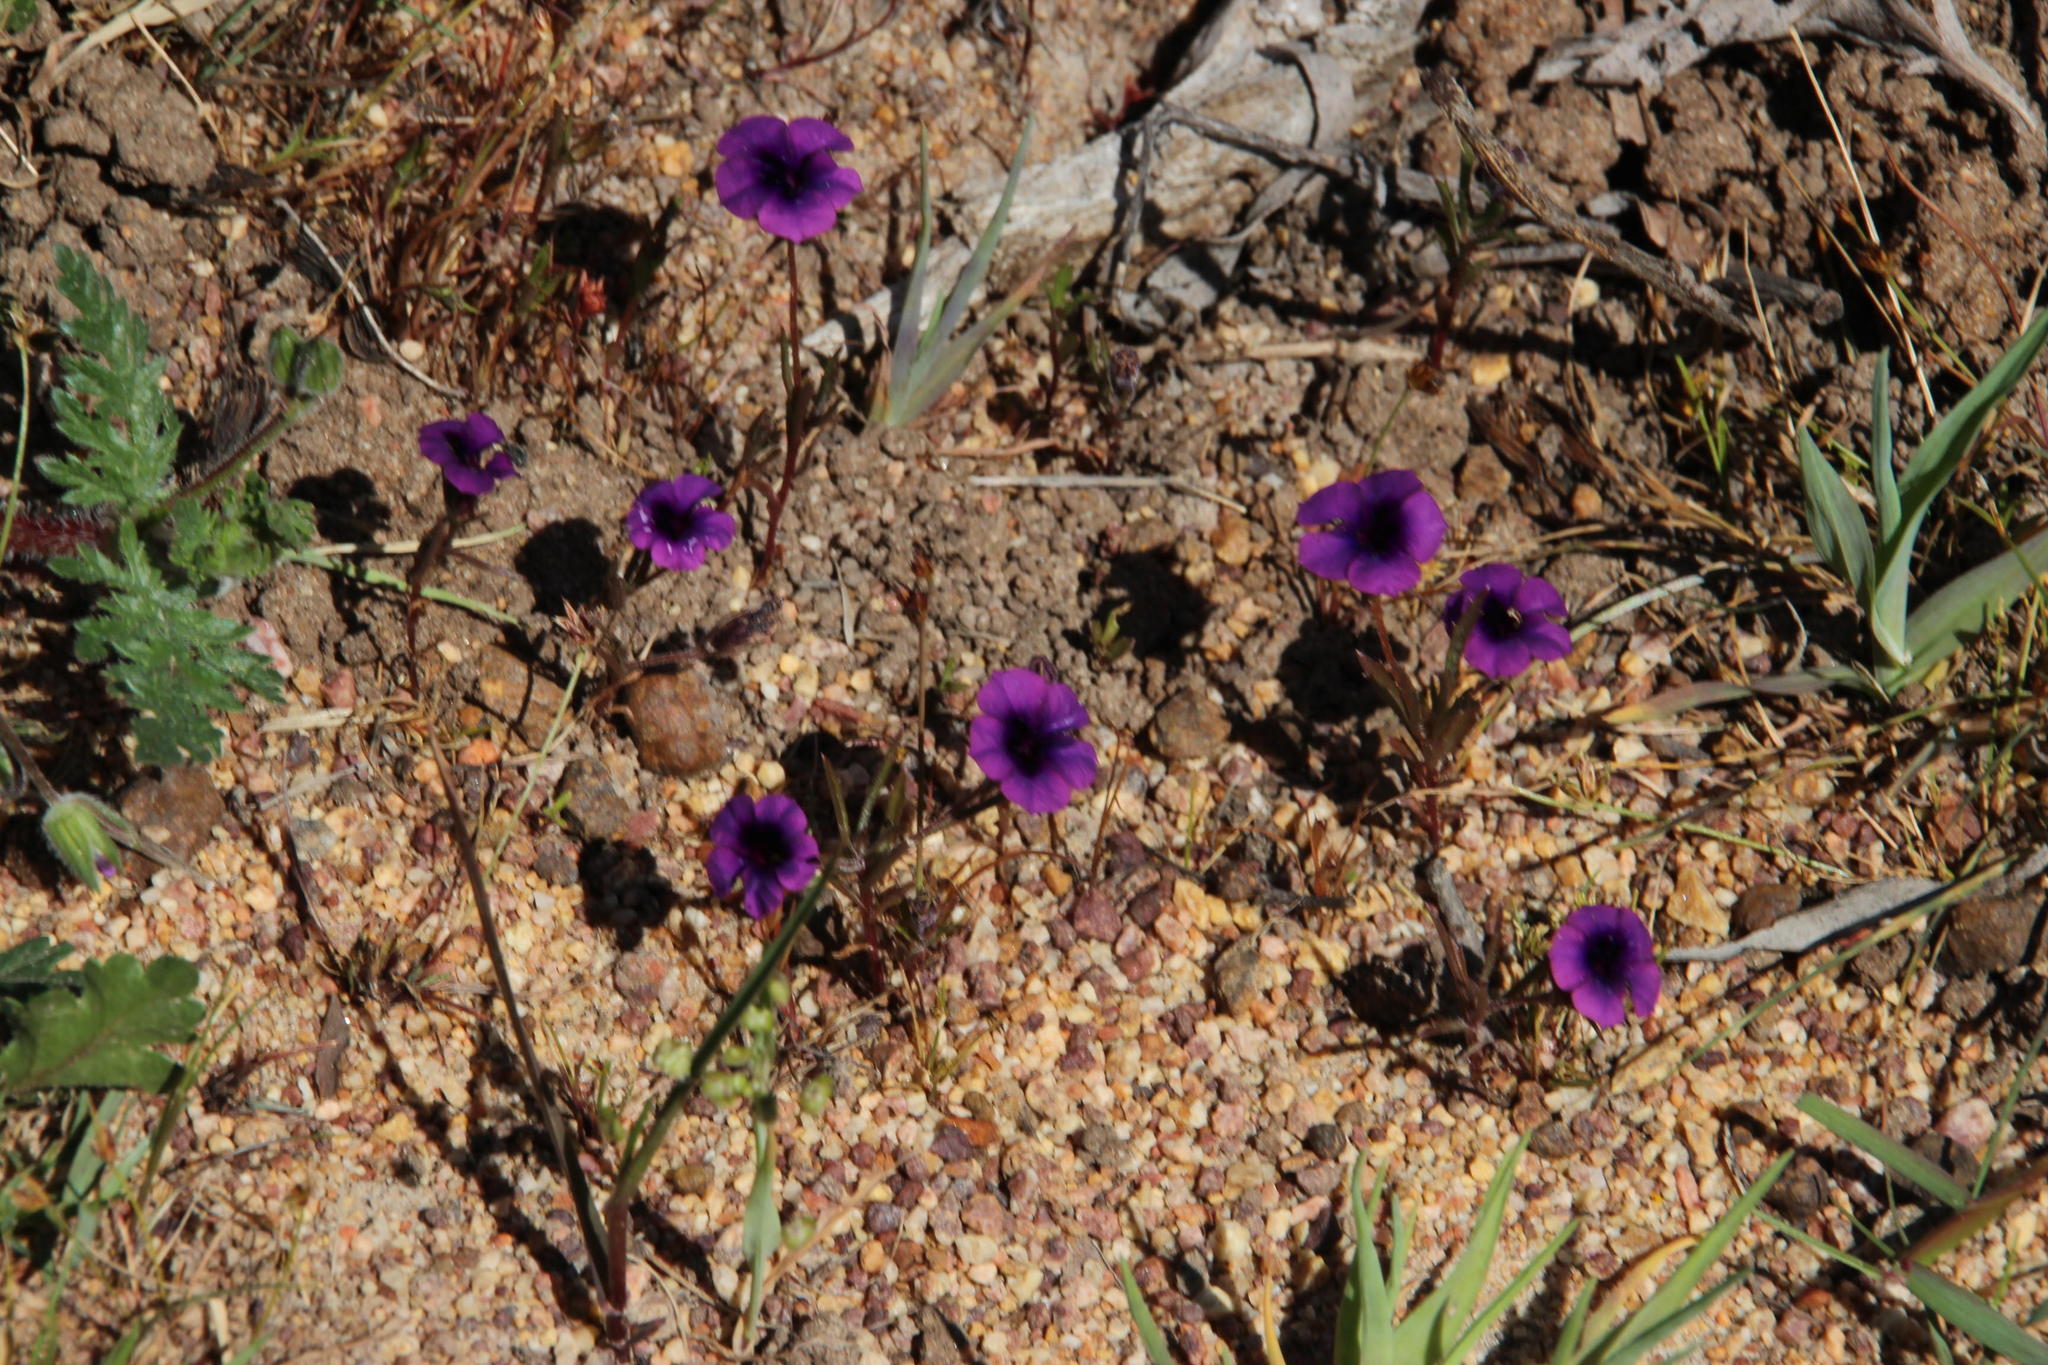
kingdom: Plantae
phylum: Tracheophyta
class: Magnoliopsida
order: Asterales
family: Campanulaceae
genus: Monopsis
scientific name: Monopsis debilis
